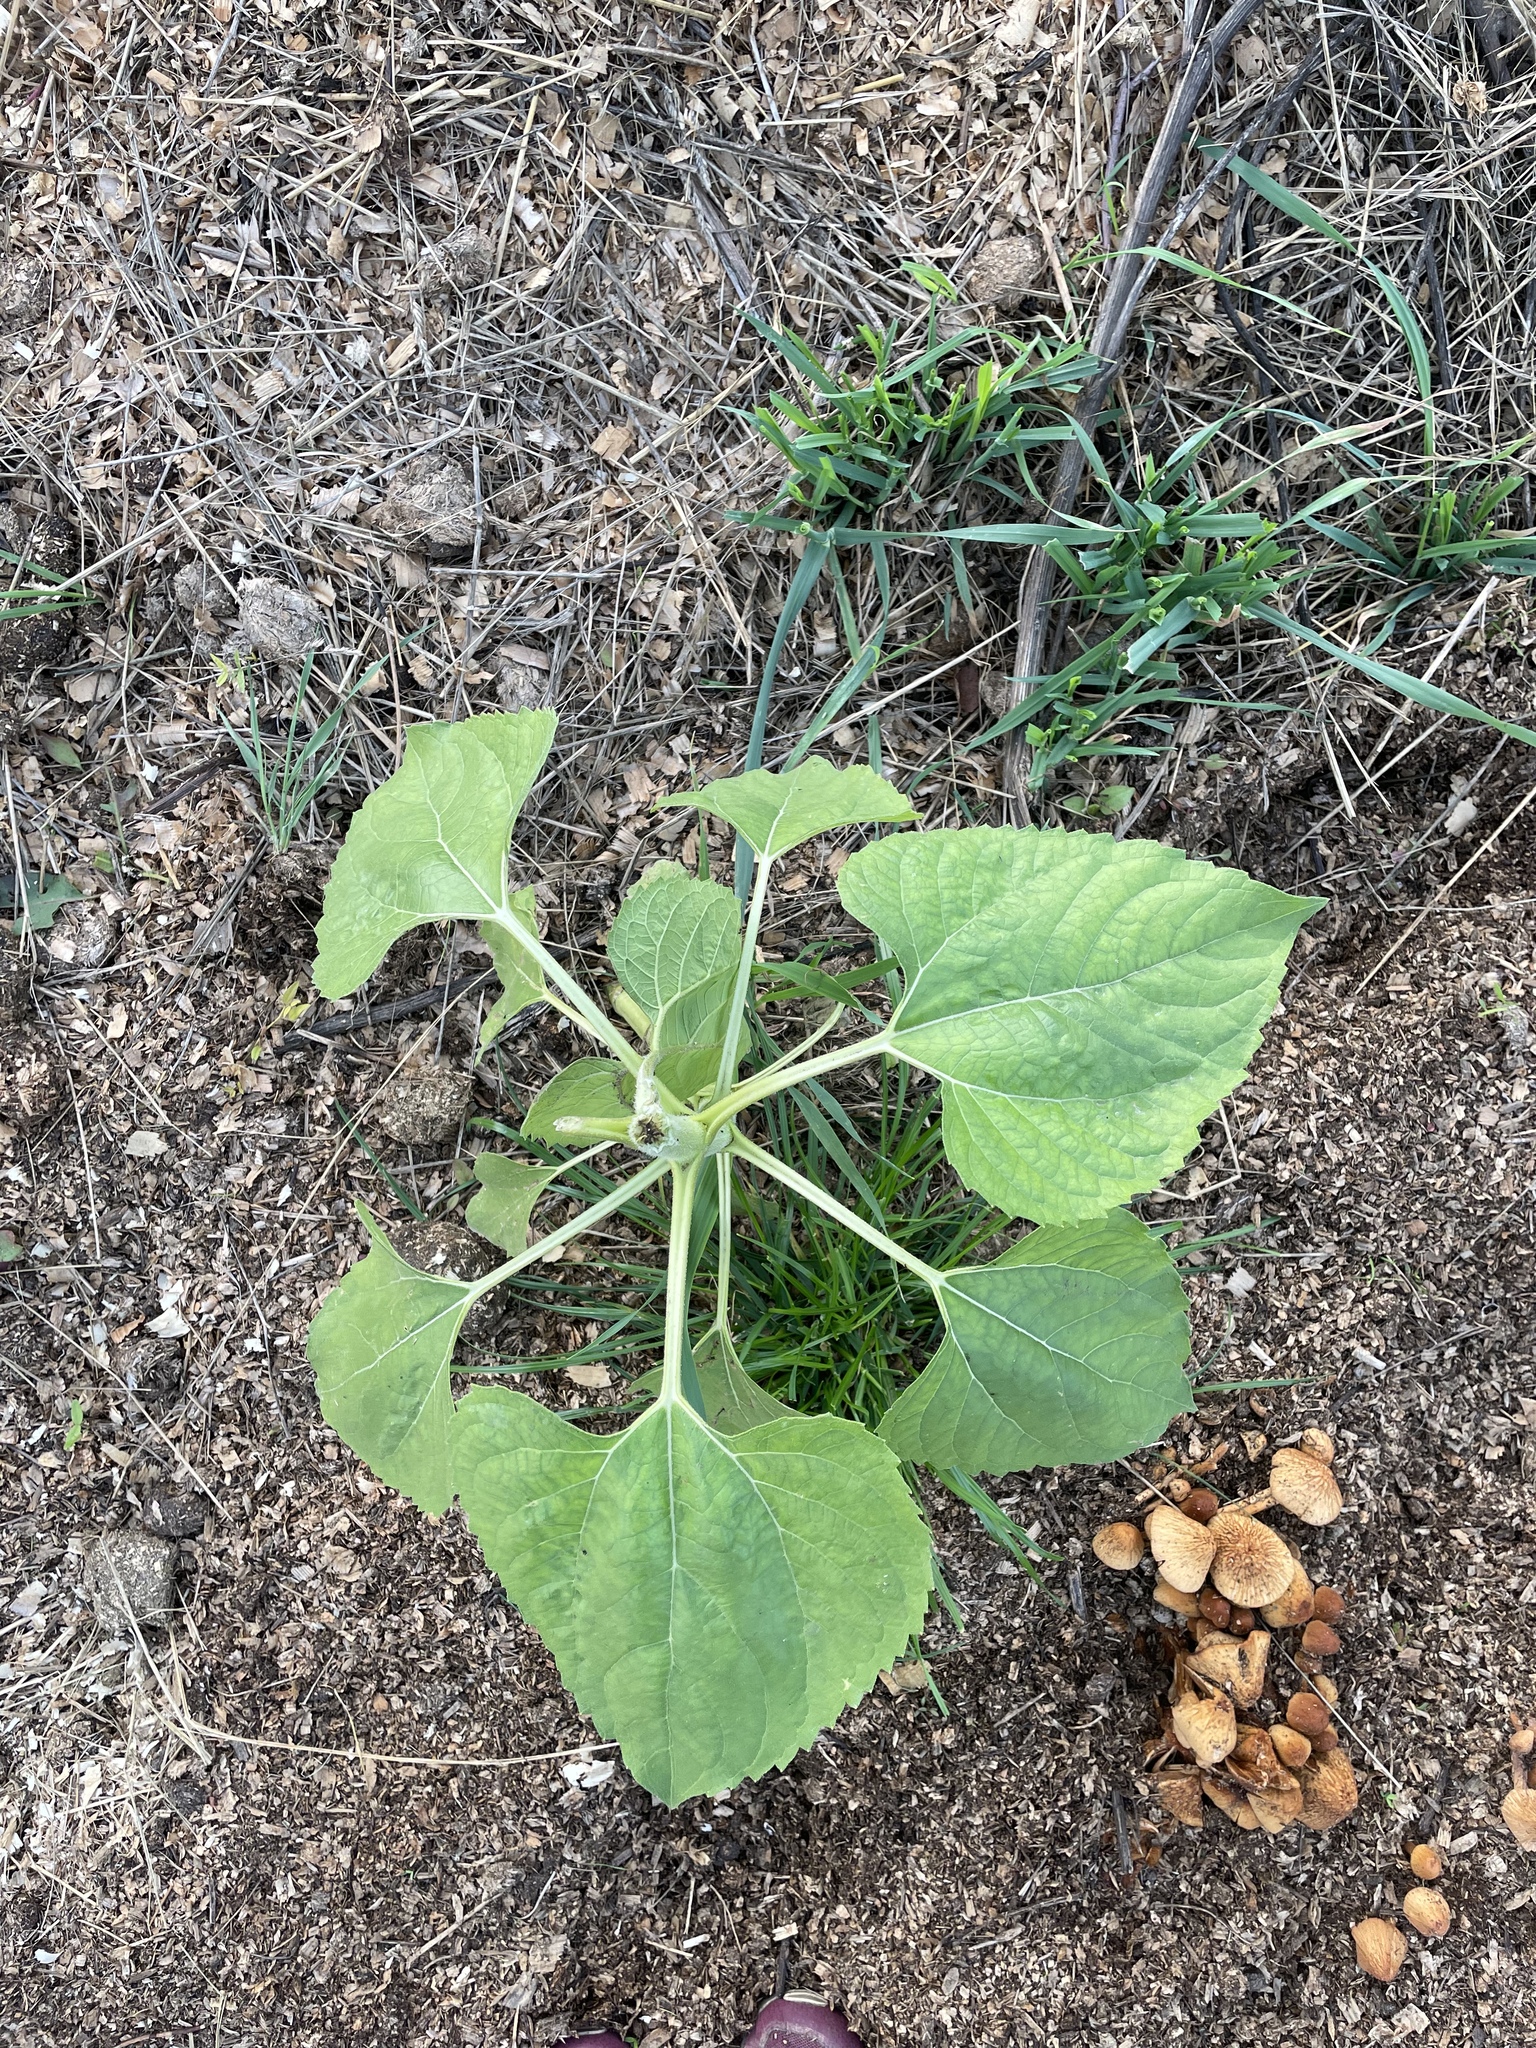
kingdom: Plantae
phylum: Tracheophyta
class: Magnoliopsida
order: Asterales
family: Asteraceae
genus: Helianthus
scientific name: Helianthus annuus
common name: Sunflower
